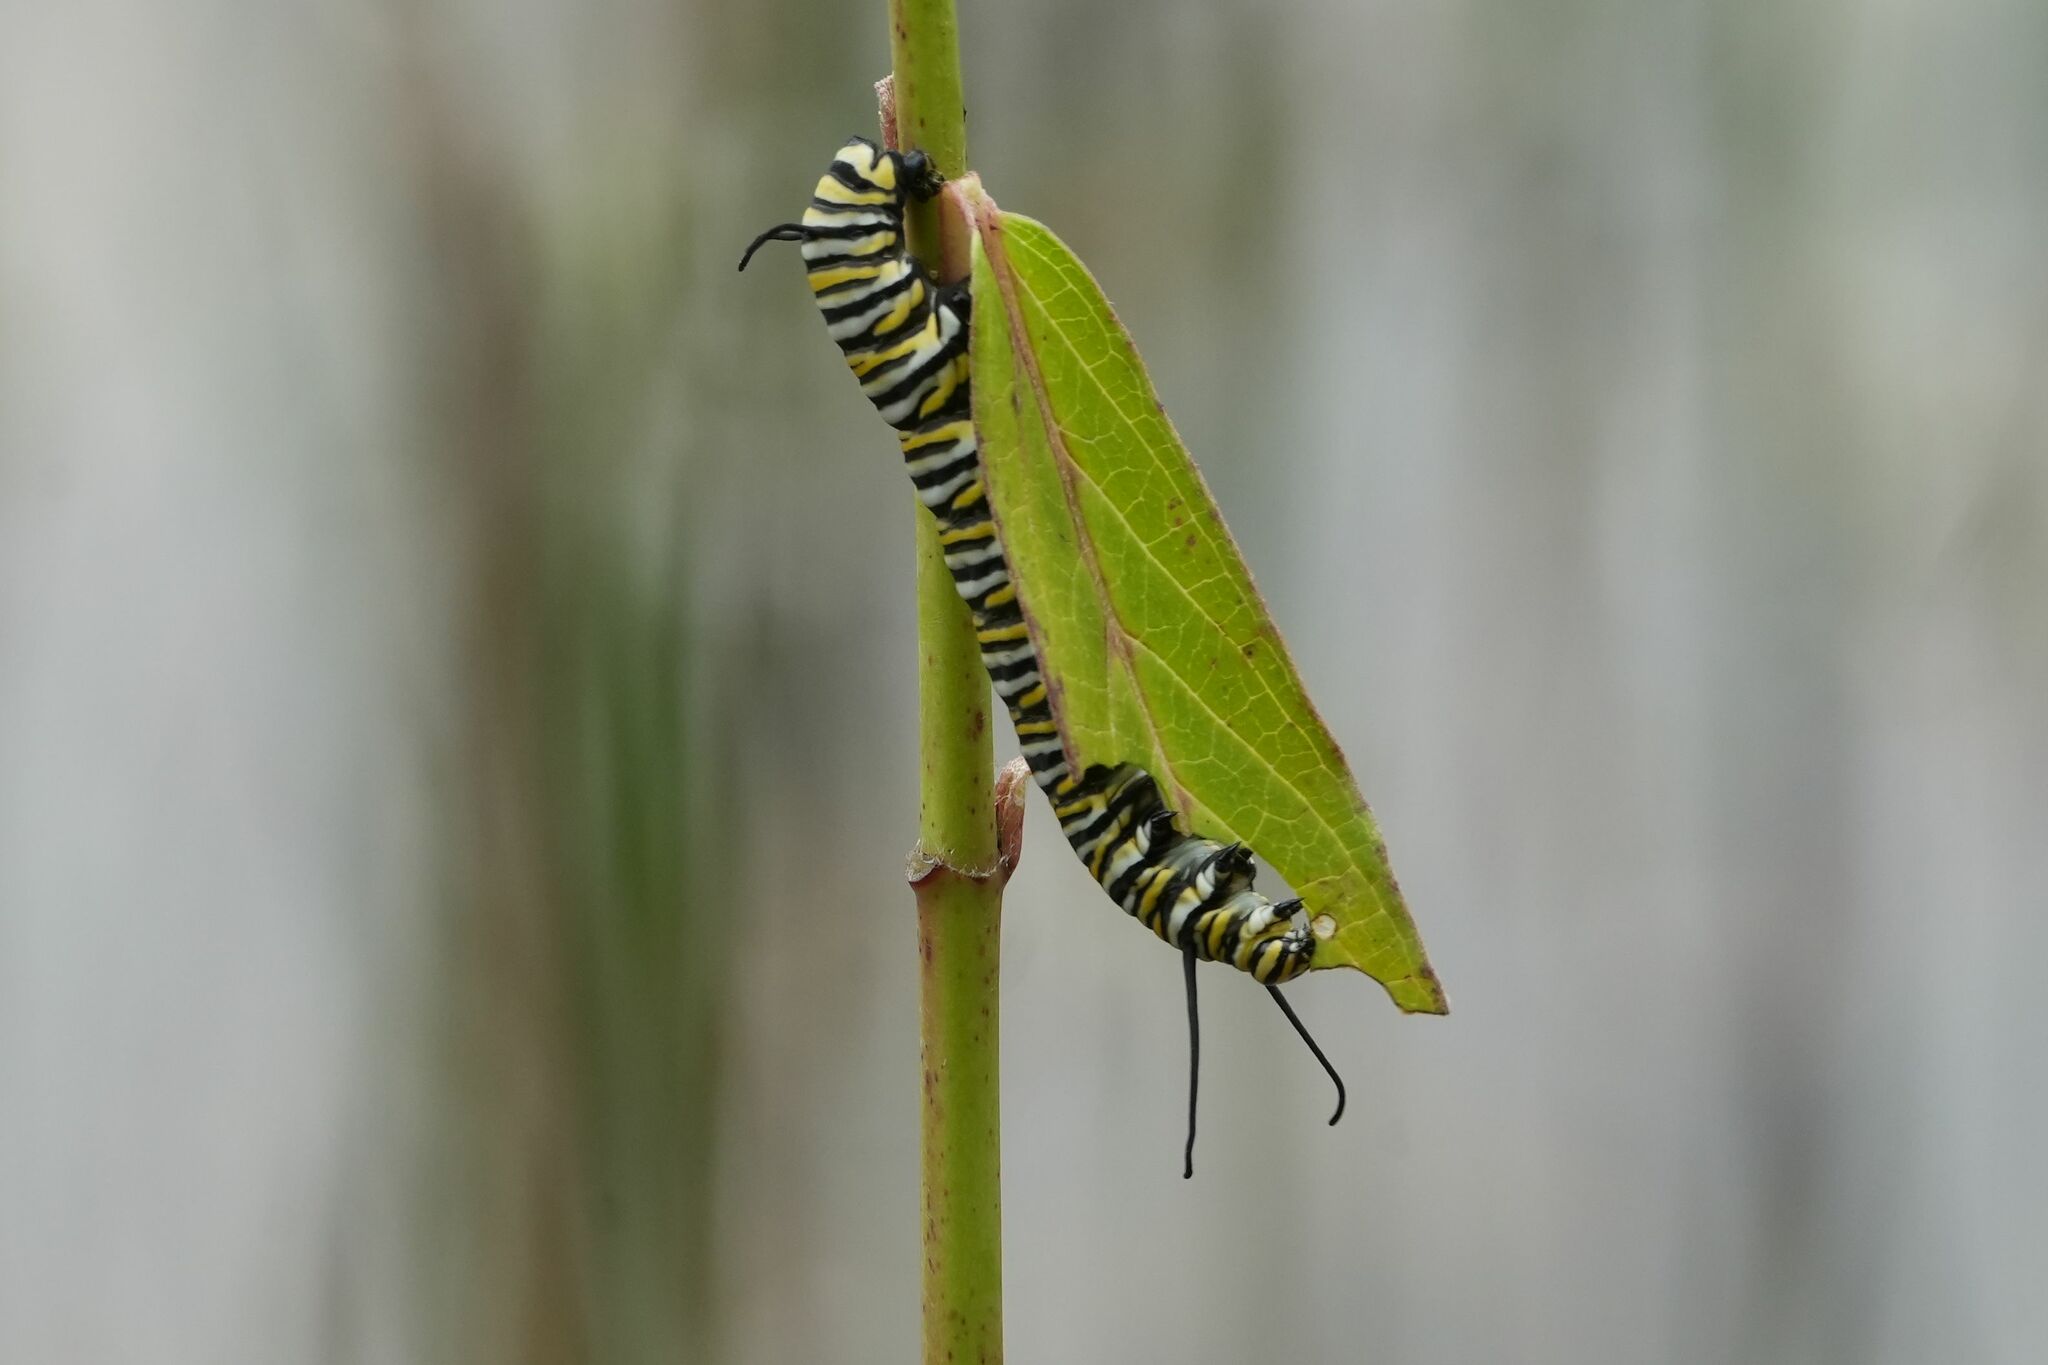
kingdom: Animalia
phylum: Arthropoda
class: Insecta
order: Lepidoptera
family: Nymphalidae
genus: Danaus
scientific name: Danaus plexippus
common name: Monarch
